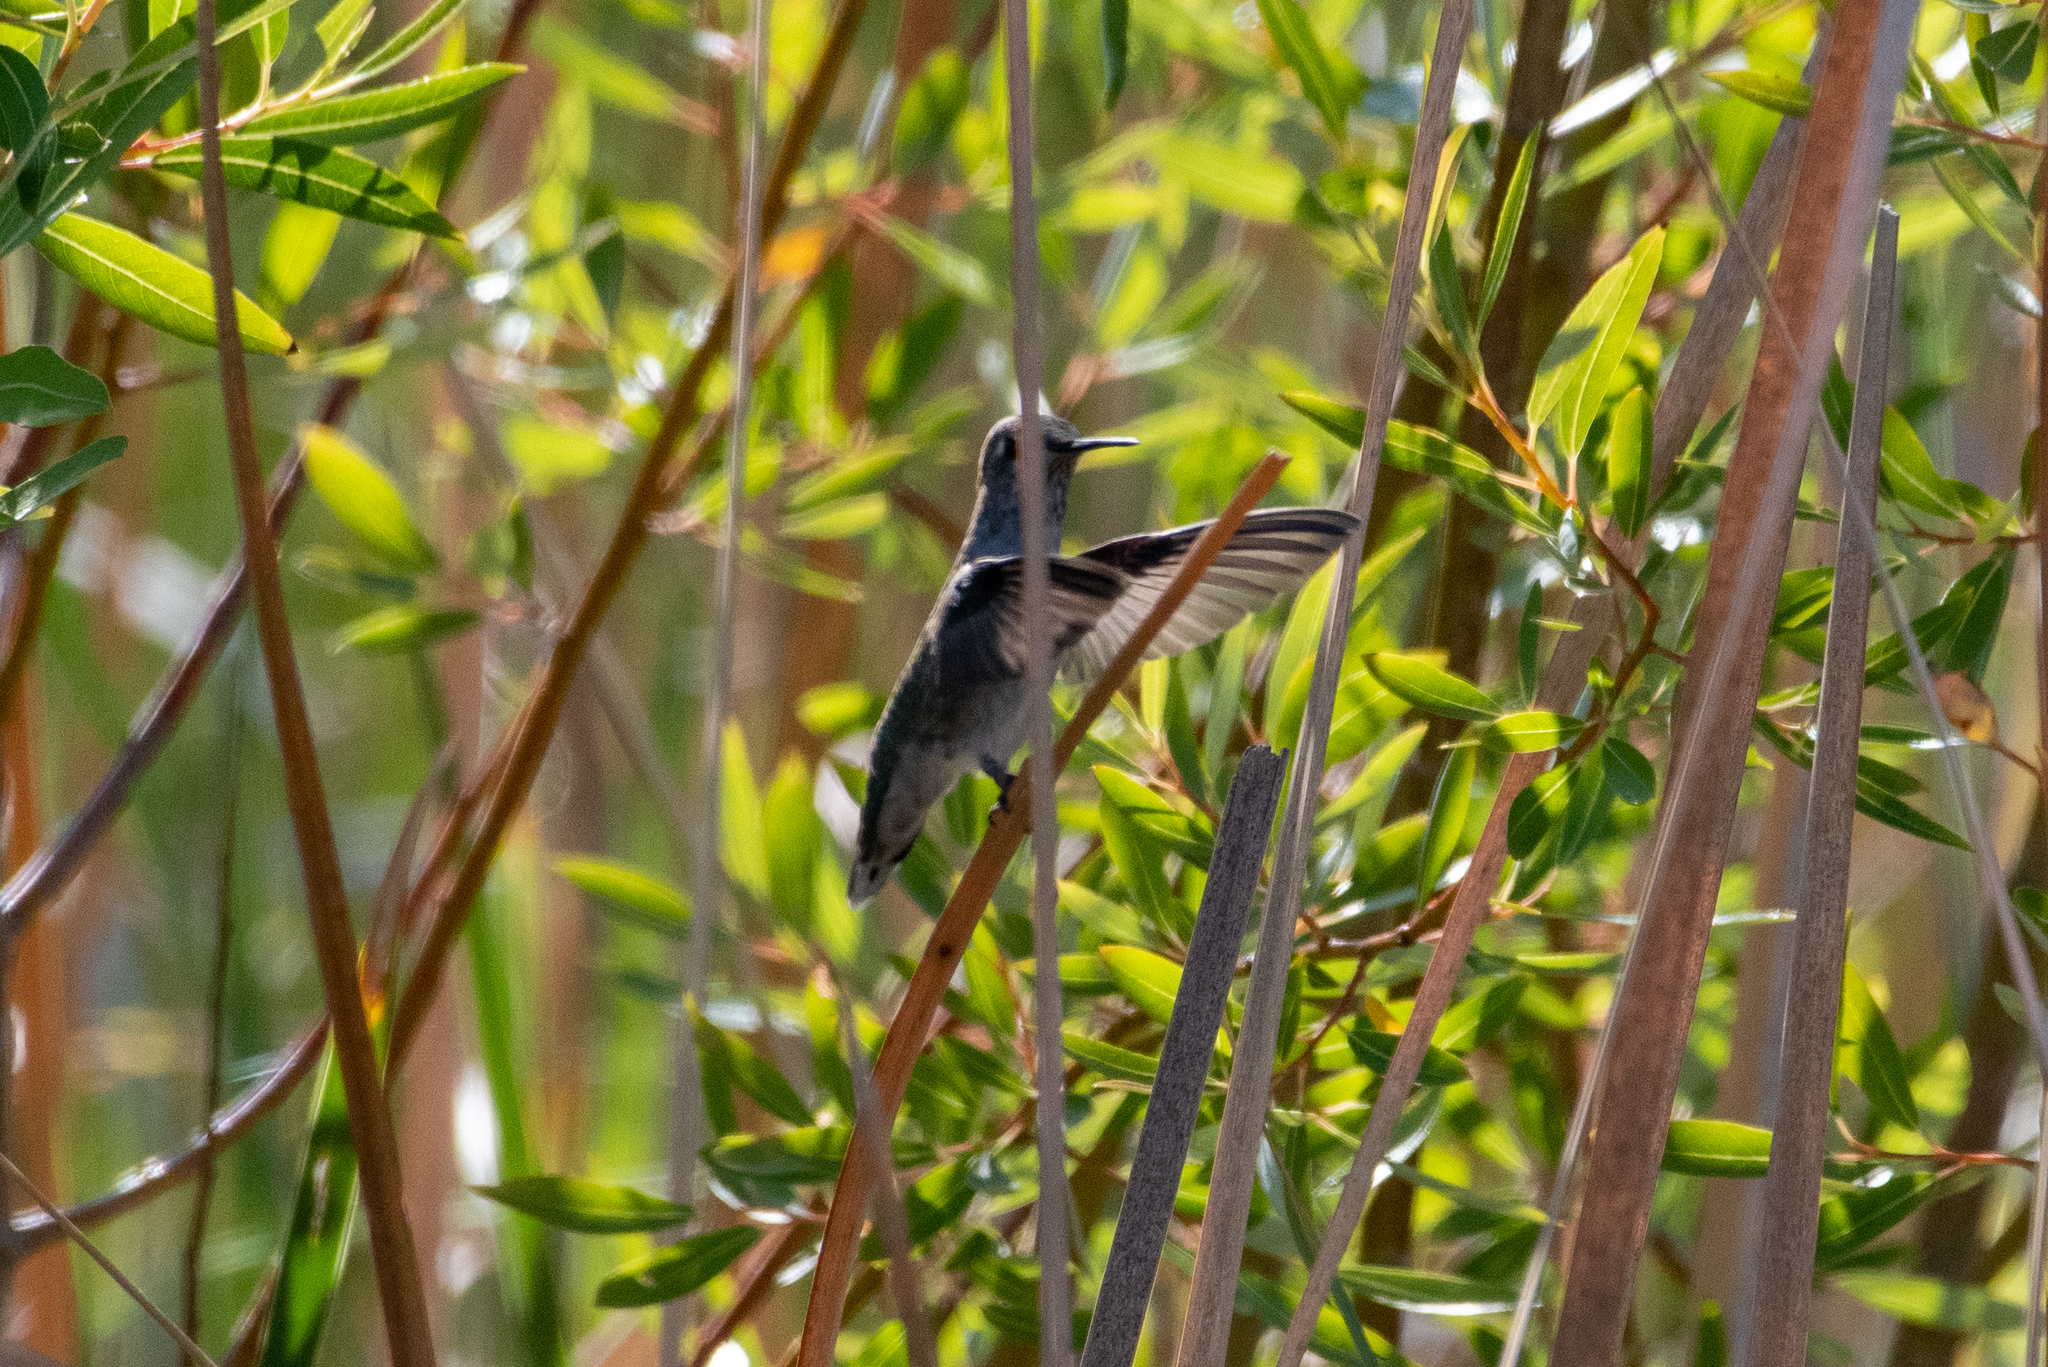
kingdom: Animalia
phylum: Chordata
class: Aves
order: Apodiformes
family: Trochilidae
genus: Calypte
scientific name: Calypte anna
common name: Anna's hummingbird
